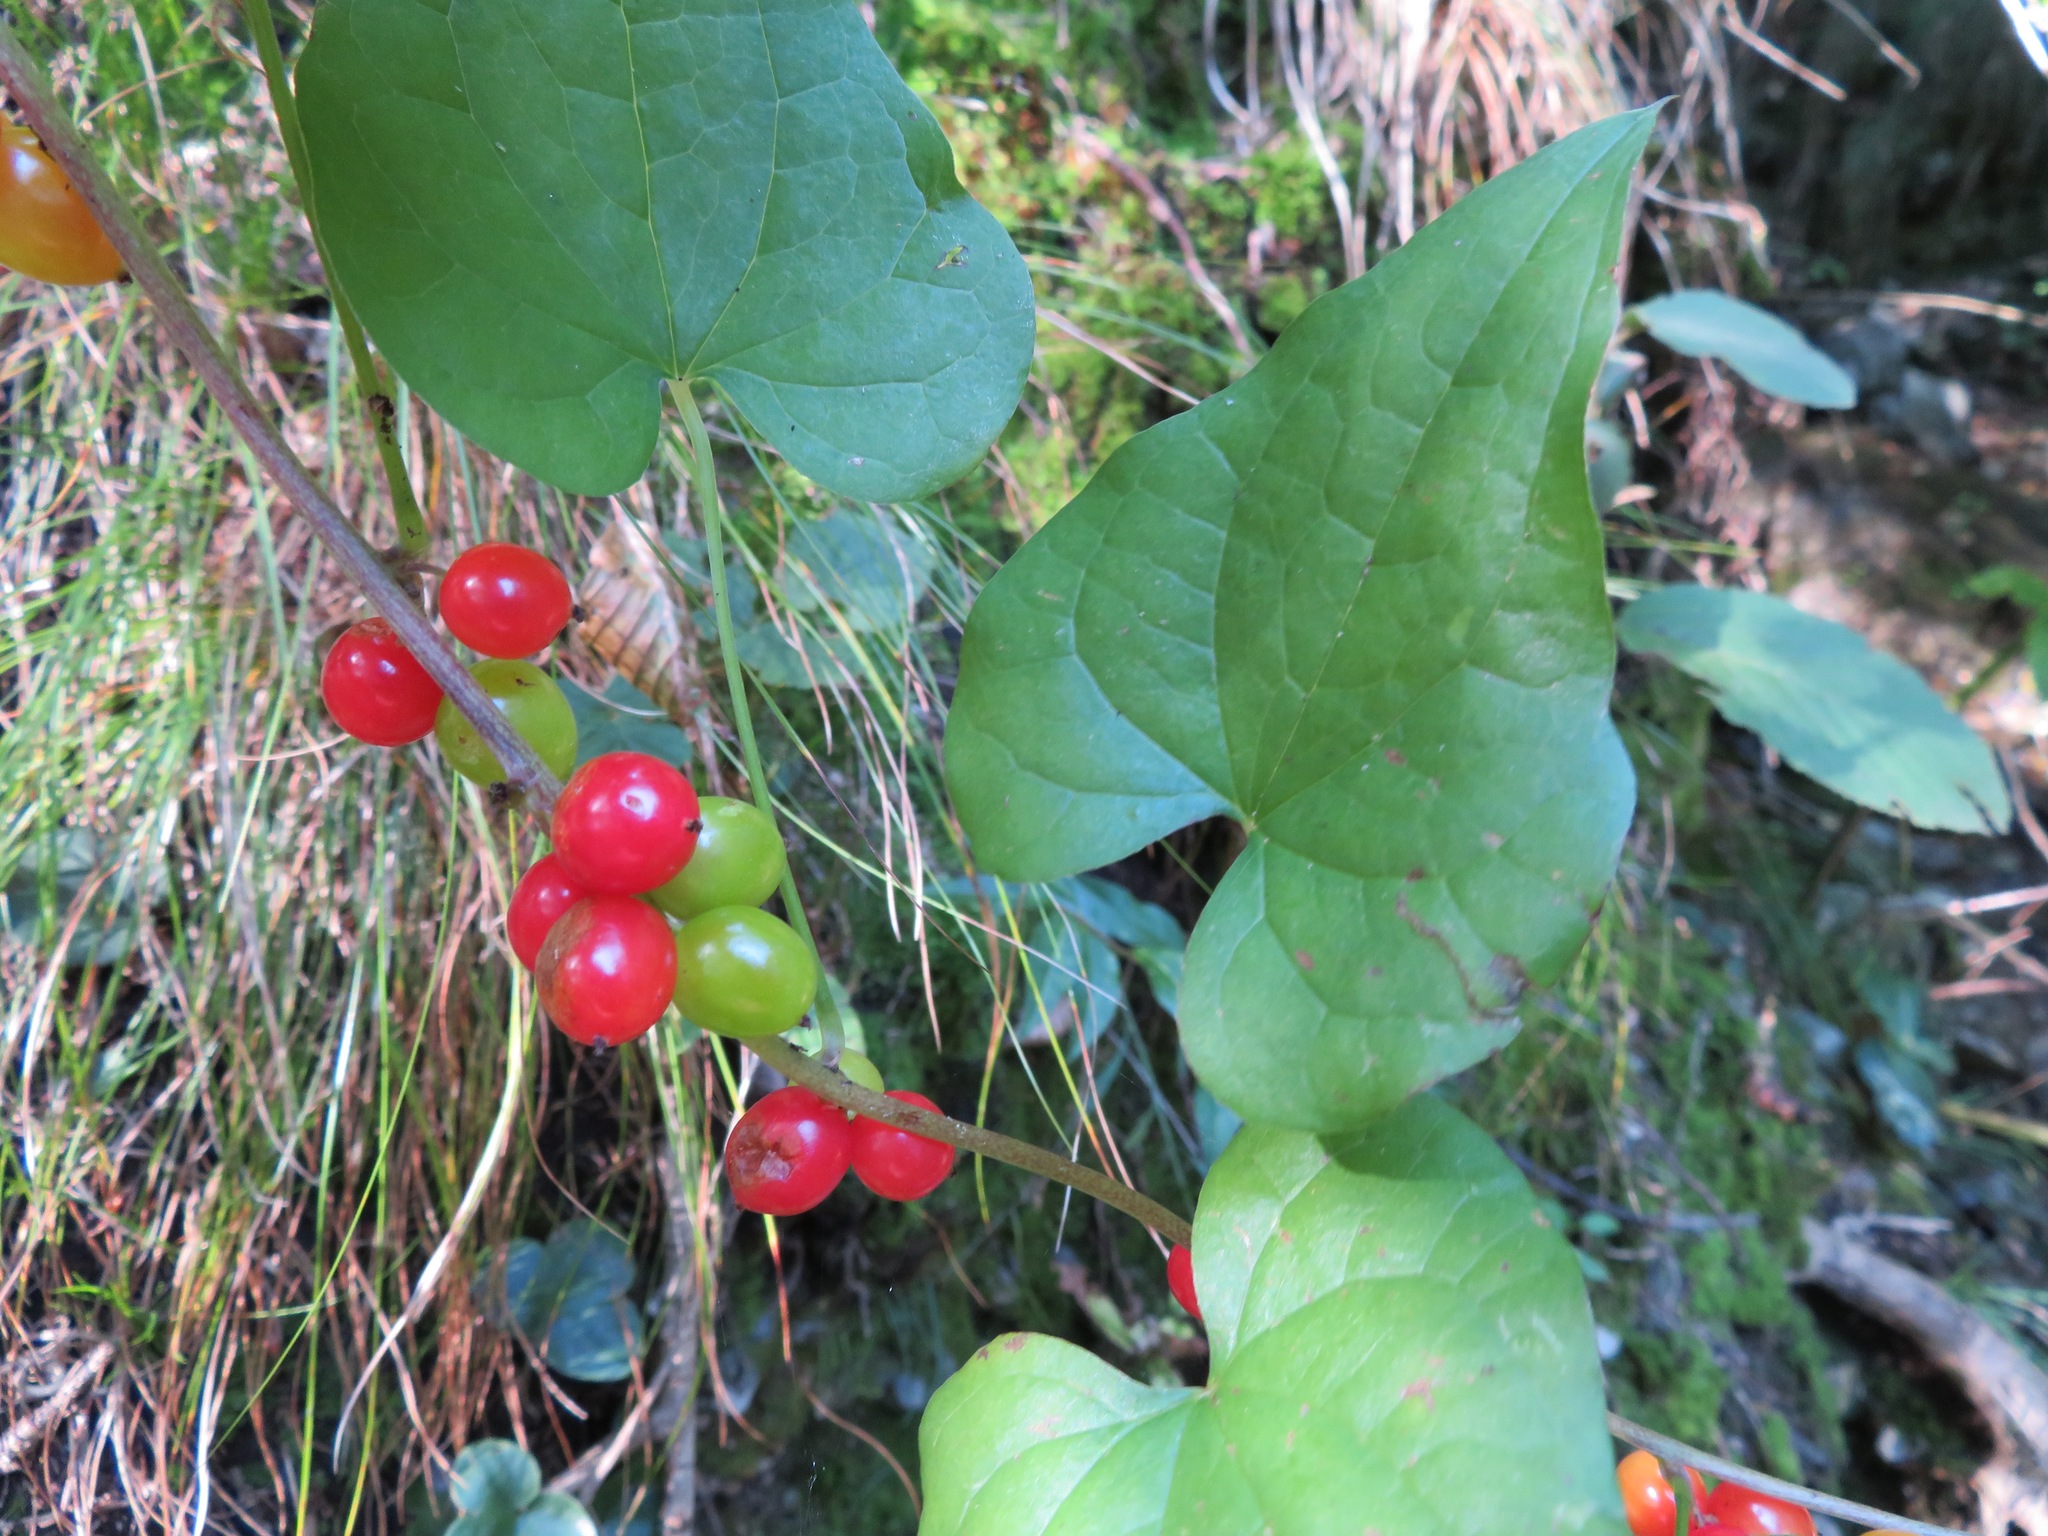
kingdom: Plantae
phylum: Tracheophyta
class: Liliopsida
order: Dioscoreales
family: Dioscoreaceae
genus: Dioscorea
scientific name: Dioscorea communis
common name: Black-bindweed
